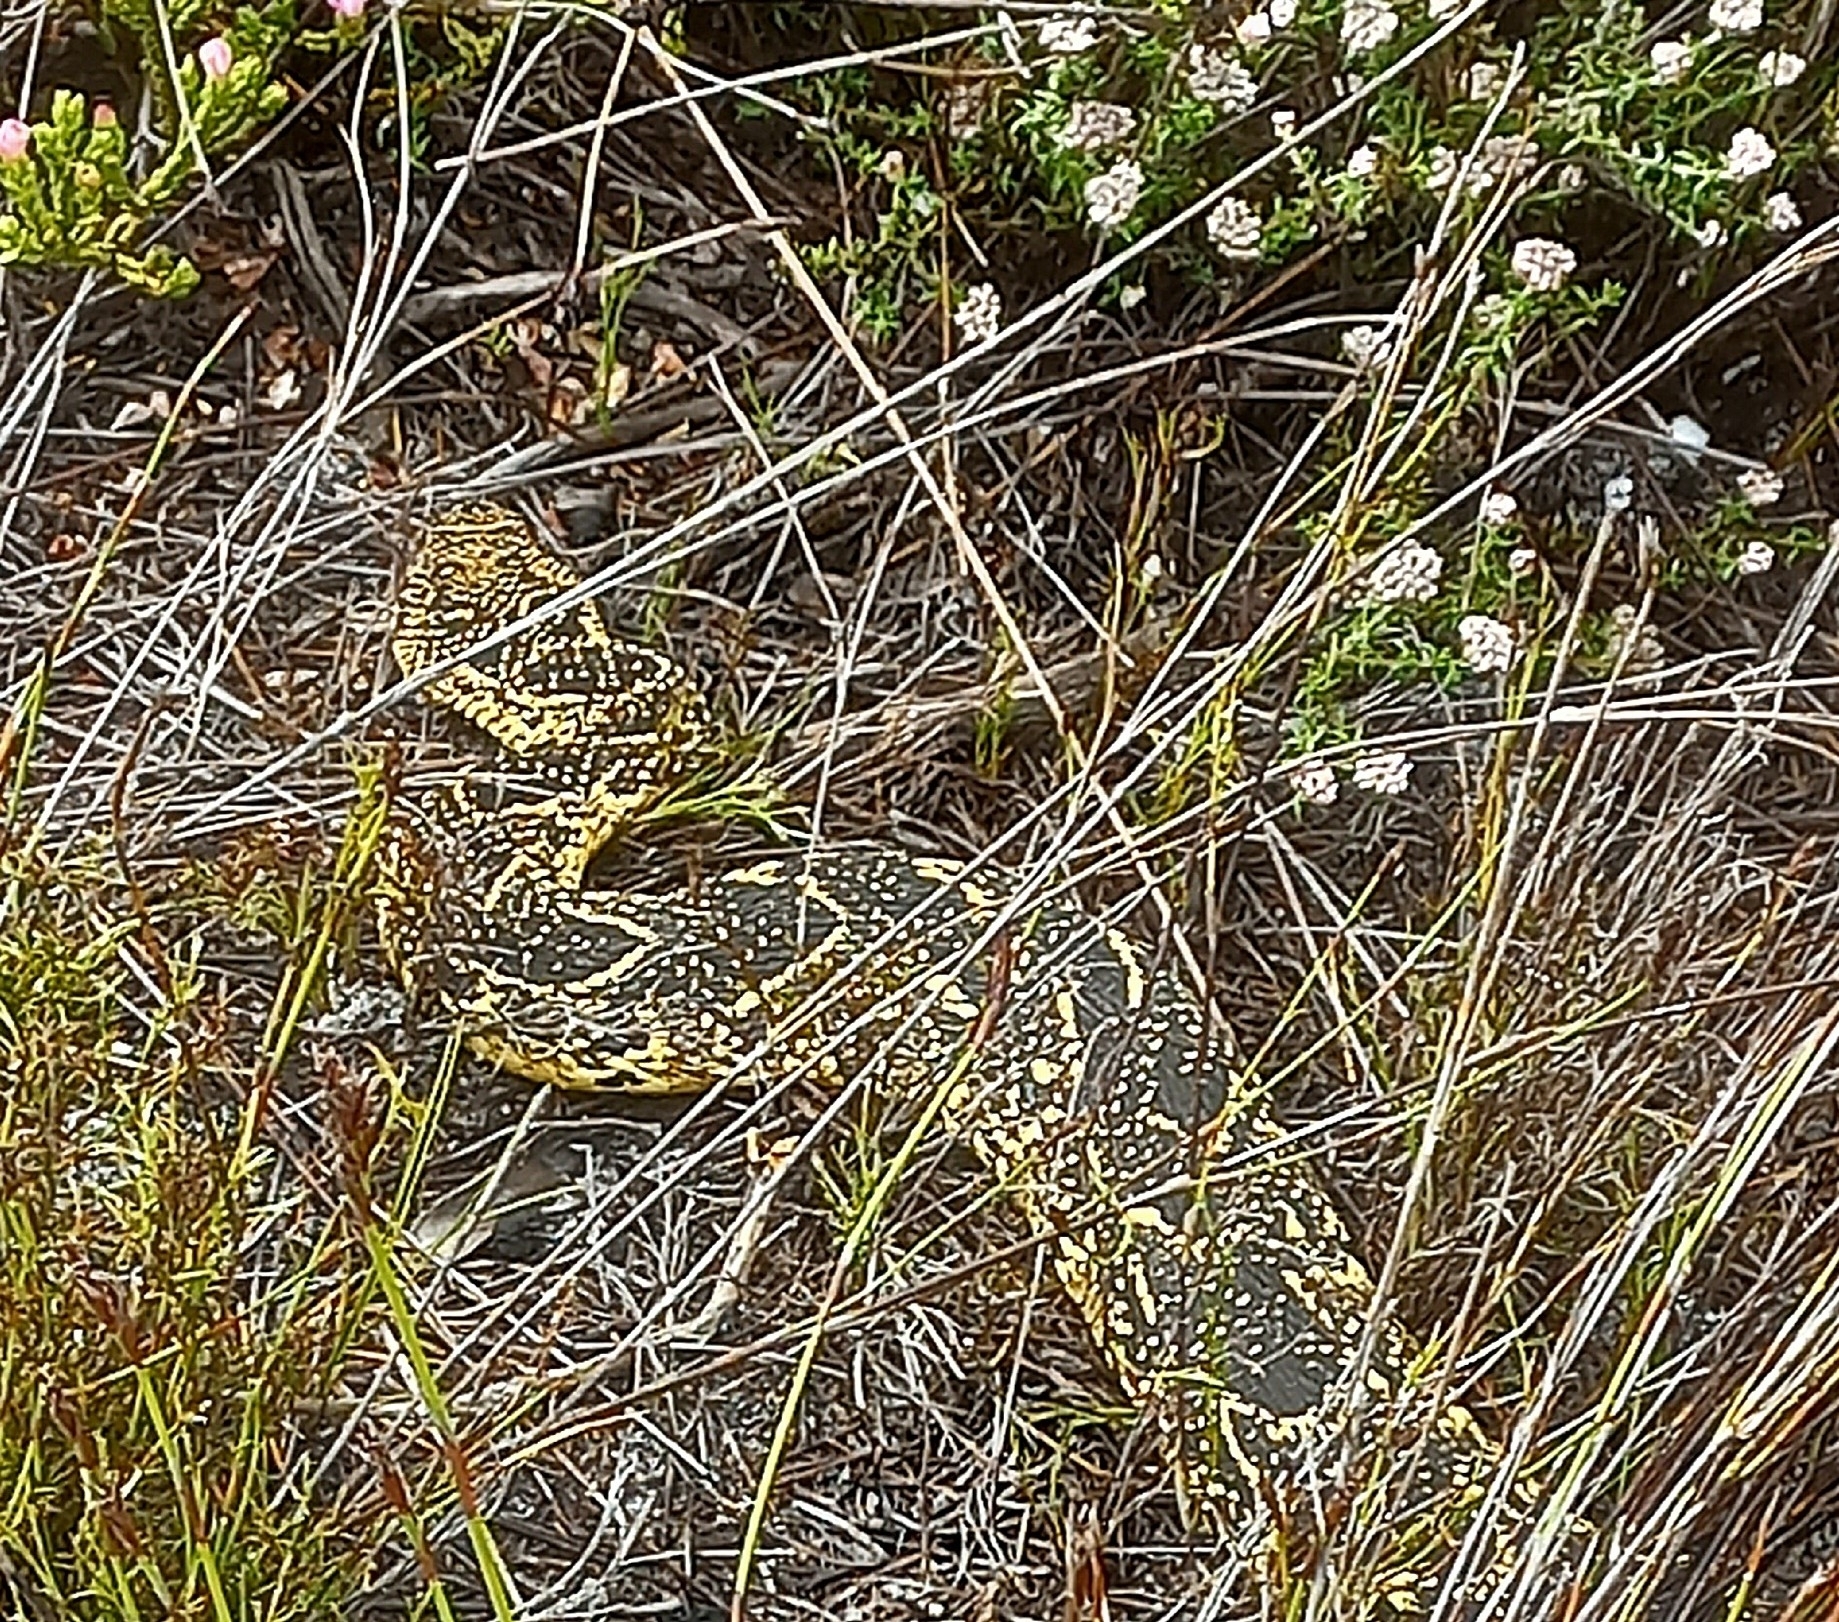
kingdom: Animalia
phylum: Chordata
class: Squamata
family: Viperidae
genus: Bitis
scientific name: Bitis arietans
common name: Puff adder
